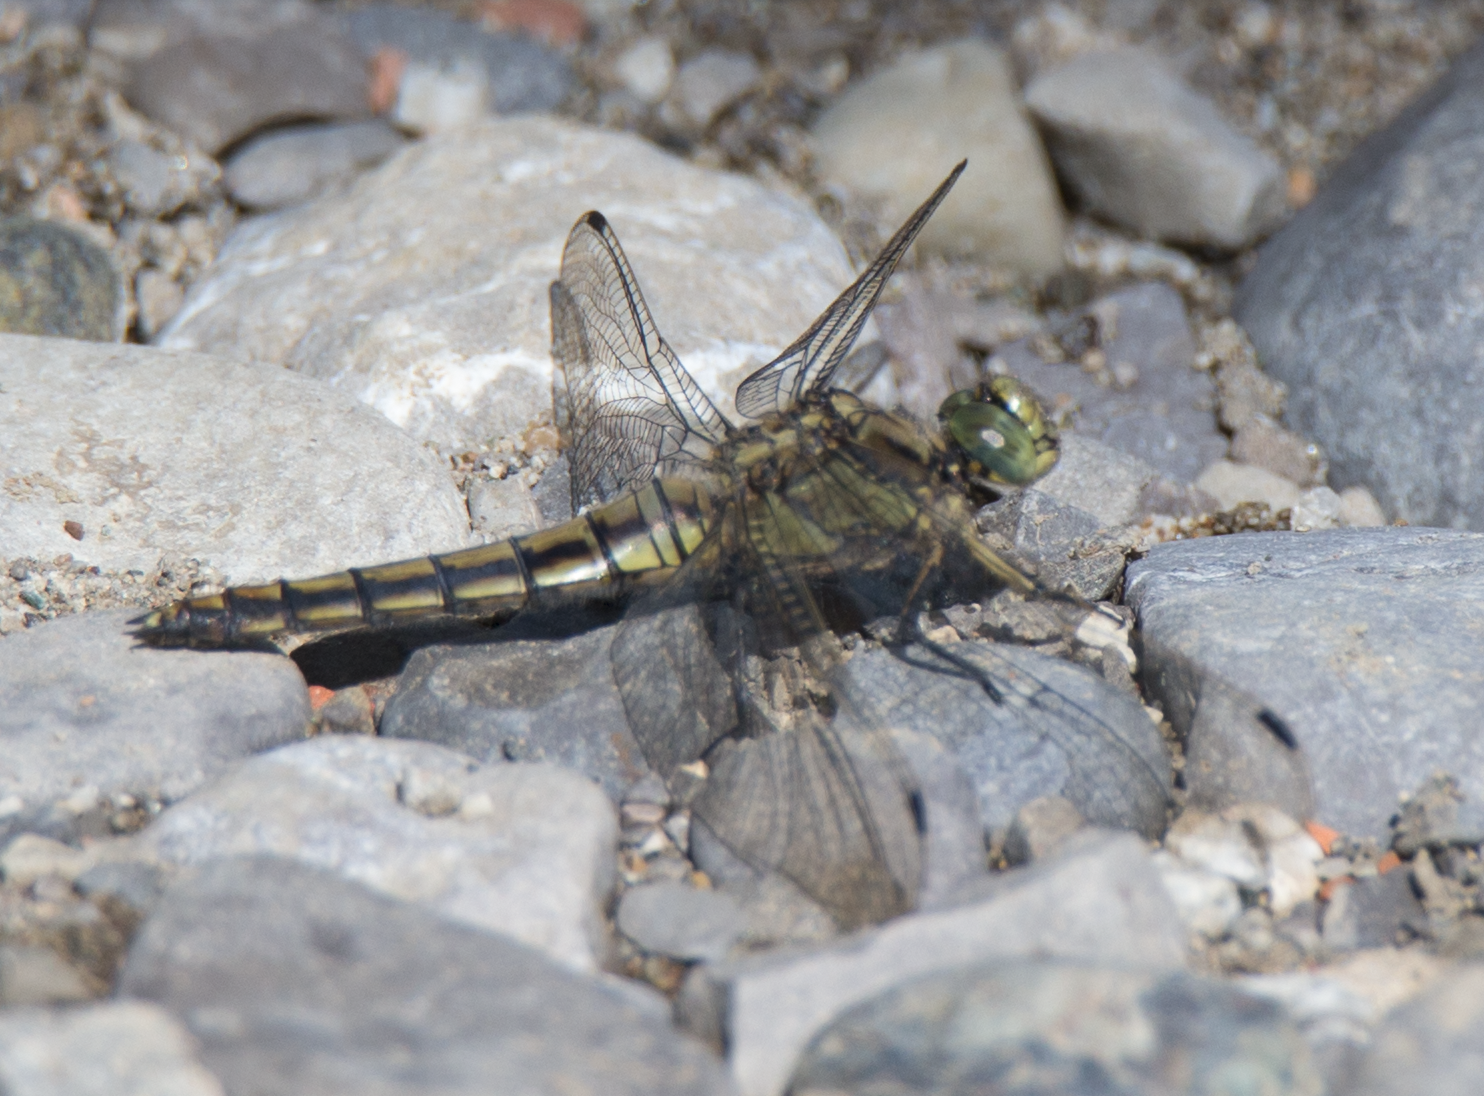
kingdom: Animalia
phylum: Arthropoda
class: Insecta
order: Odonata
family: Libellulidae
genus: Orthetrum
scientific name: Orthetrum cancellatum
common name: Black-tailed skimmer
